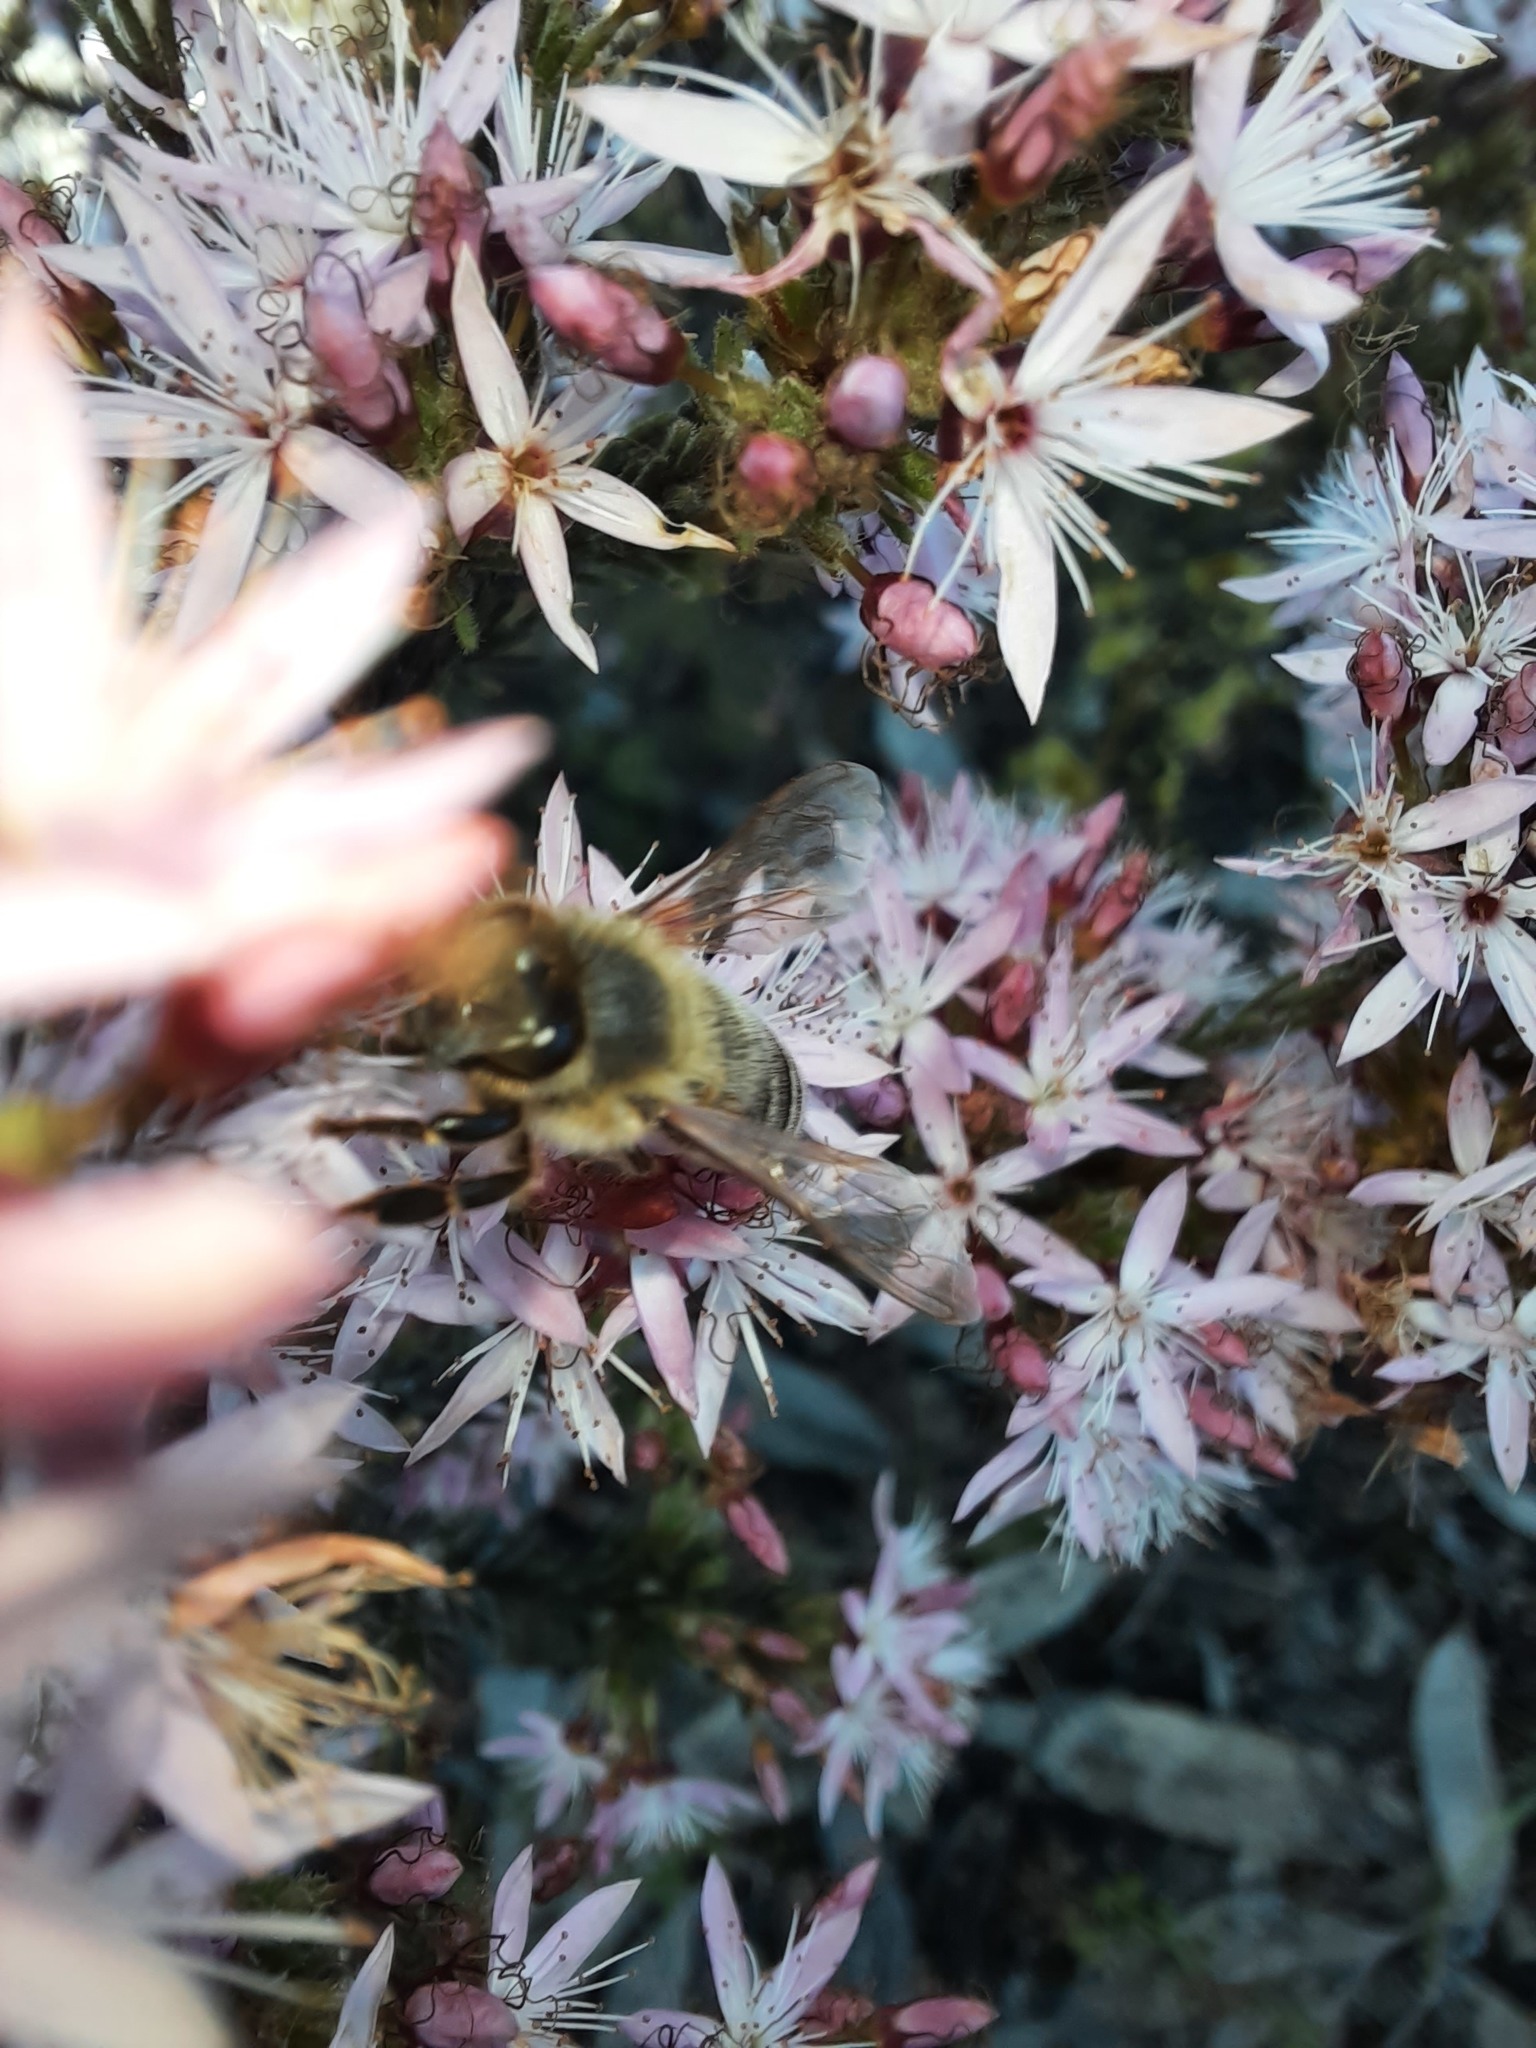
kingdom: Animalia
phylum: Arthropoda
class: Insecta
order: Hymenoptera
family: Apidae
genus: Apis
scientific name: Apis mellifera
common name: Honey bee
